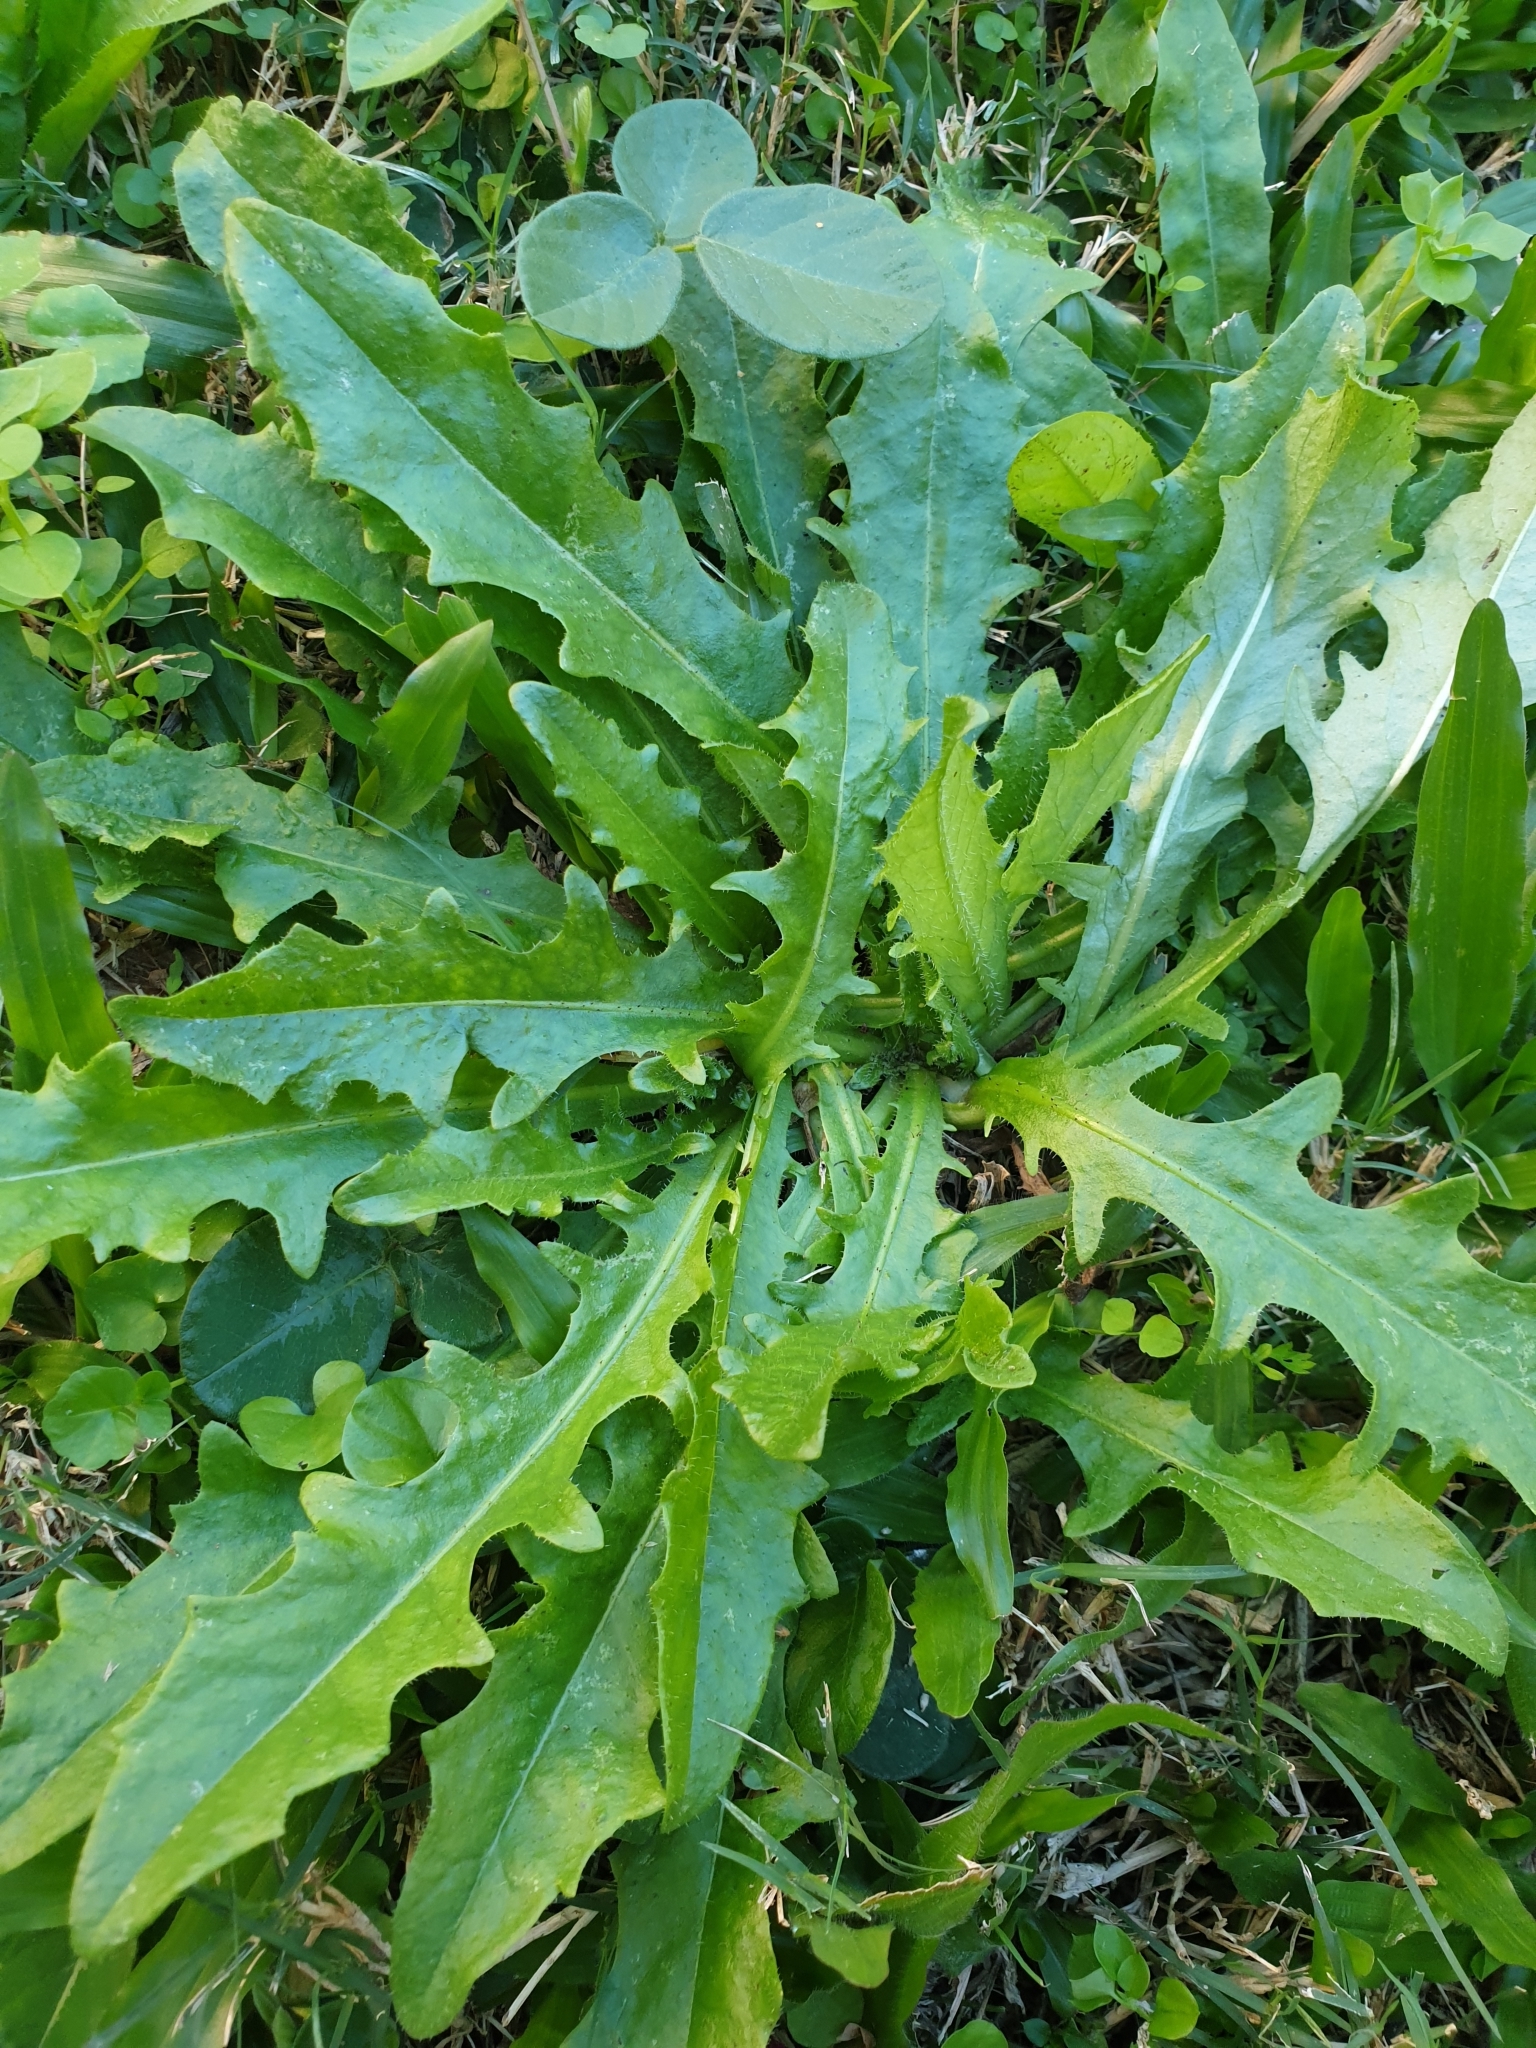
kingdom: Plantae
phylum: Tracheophyta
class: Magnoliopsida
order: Asterales
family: Asteraceae
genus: Hypochaeris
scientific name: Hypochaeris radicata
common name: Flatweed
